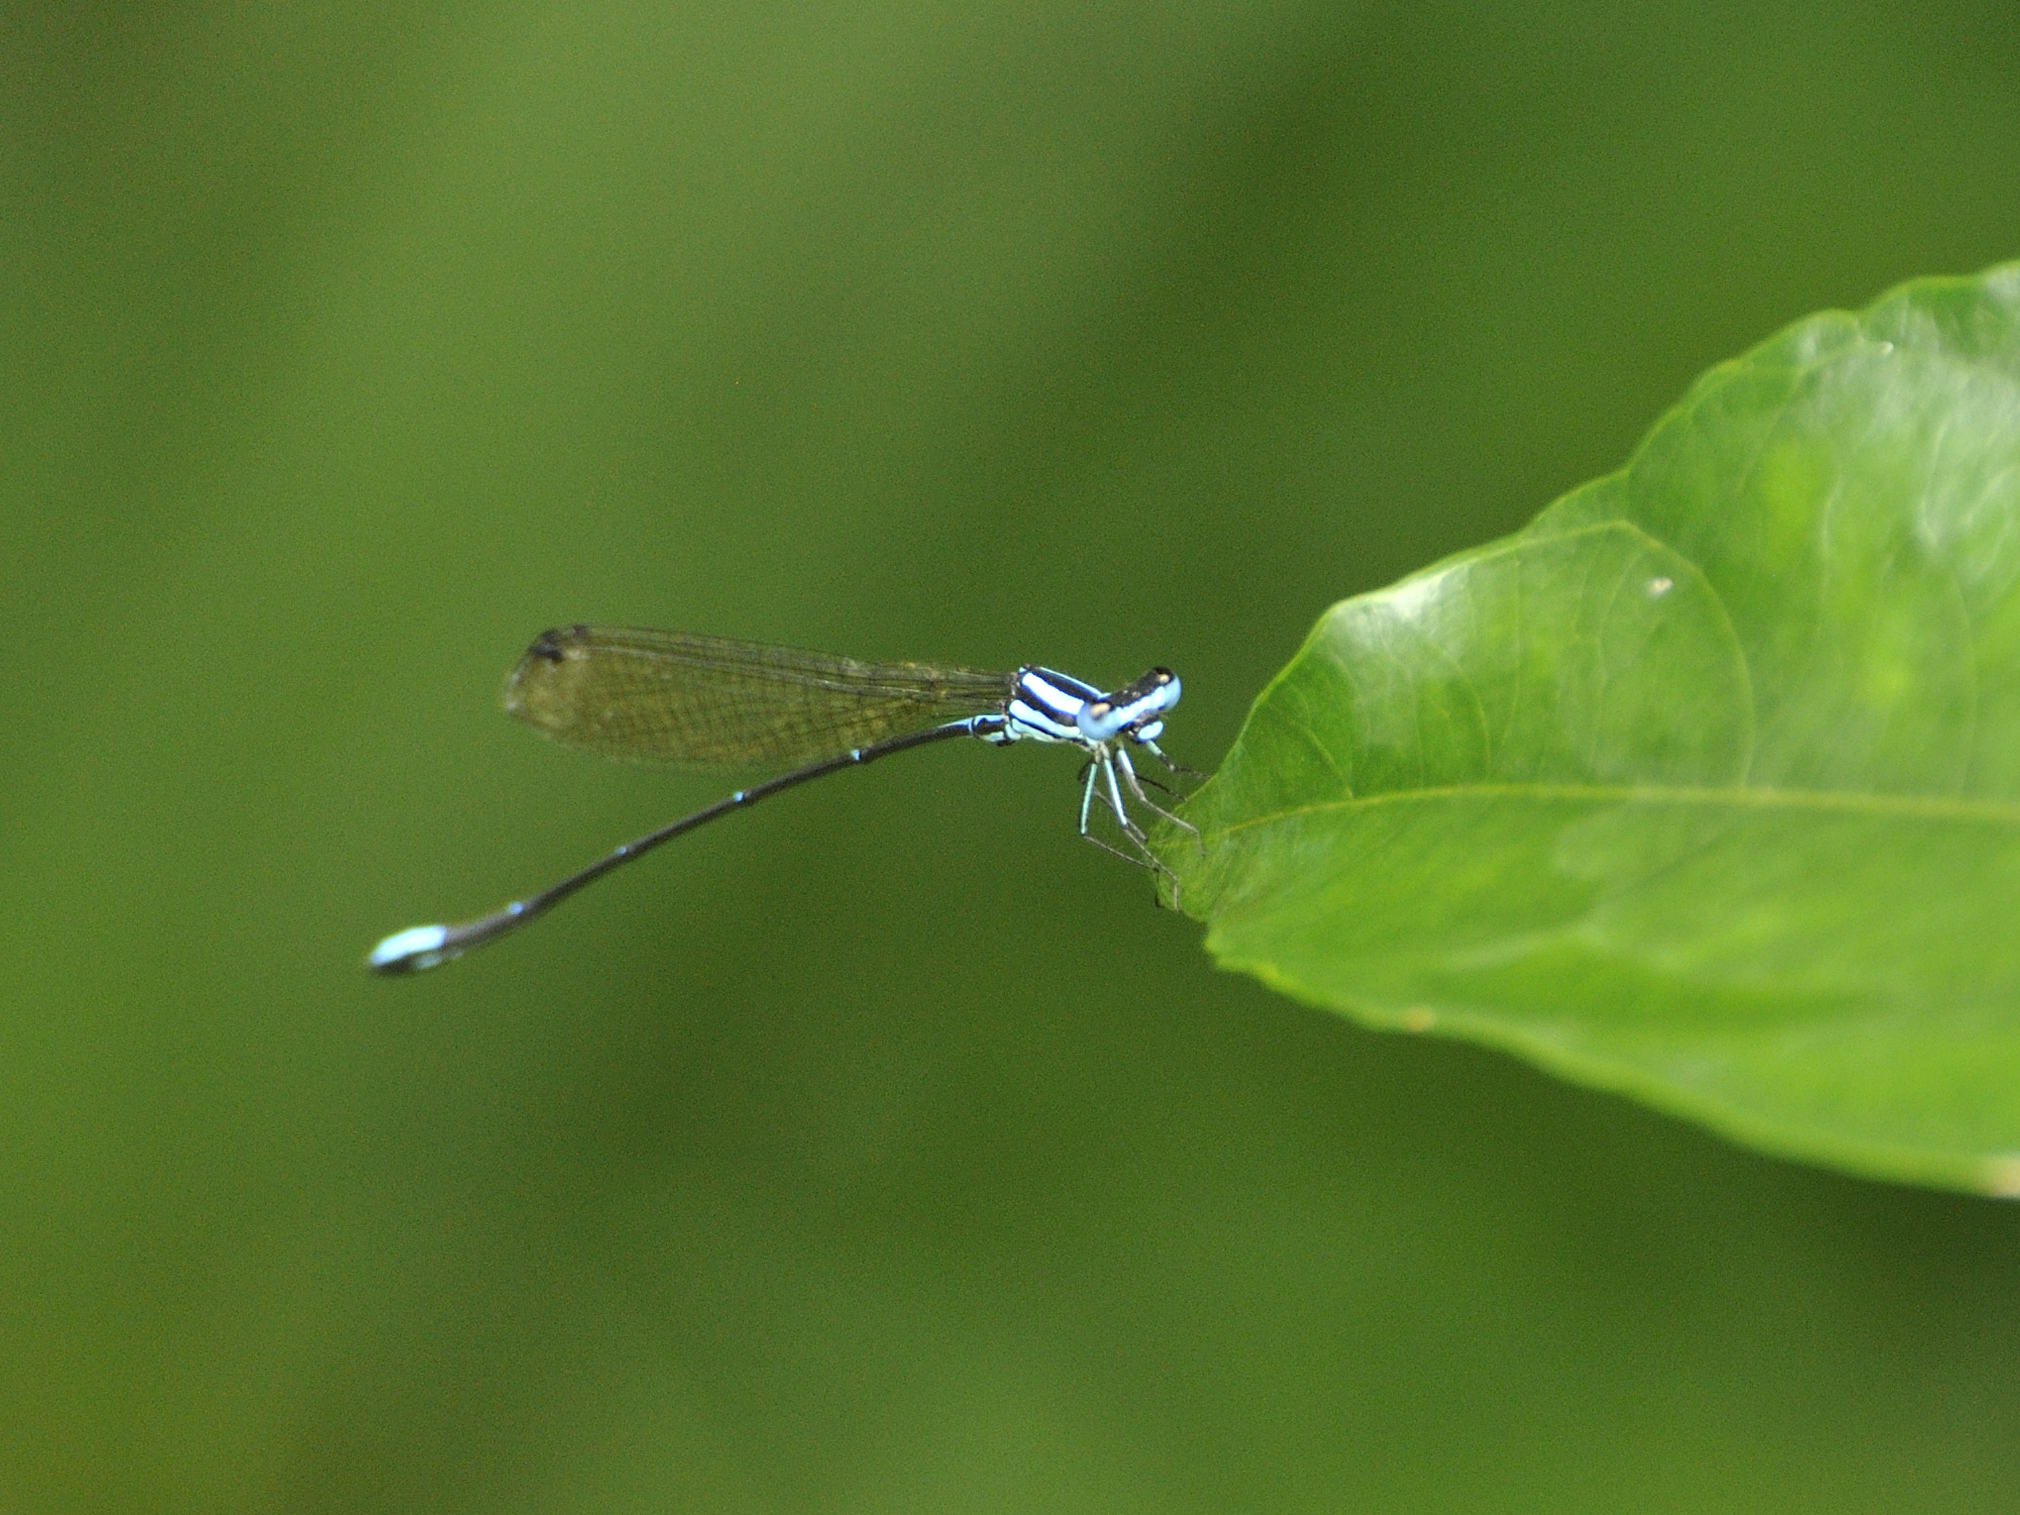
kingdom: Animalia
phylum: Arthropoda
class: Insecta
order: Odonata
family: Platycnemididae
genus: Allocnemis
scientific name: Allocnemis marshalli
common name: Blue-shouldered threadtail
